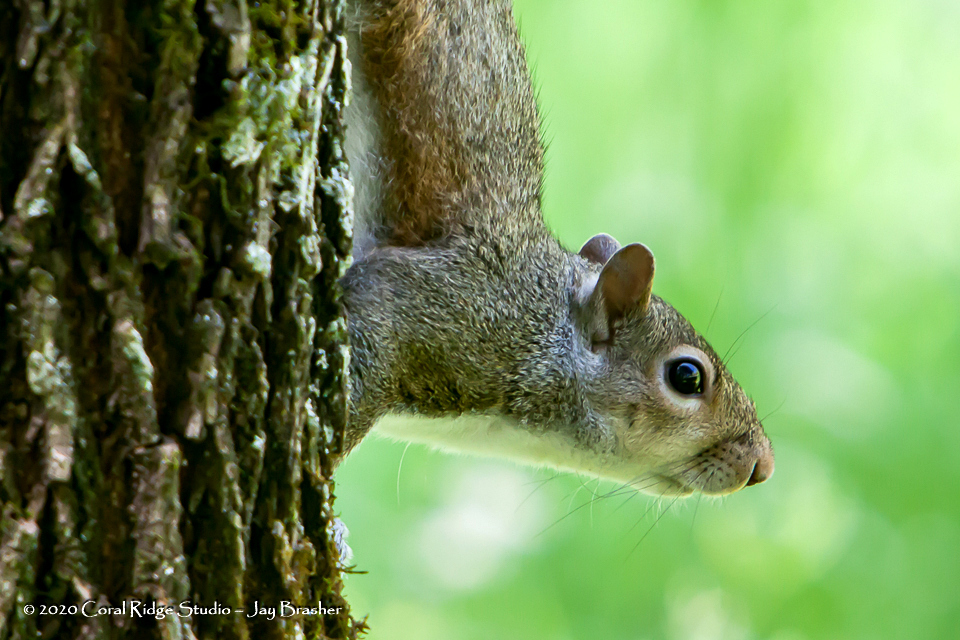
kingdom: Animalia
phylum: Chordata
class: Mammalia
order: Rodentia
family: Sciuridae
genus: Sciurus
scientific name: Sciurus carolinensis
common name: Eastern gray squirrel
